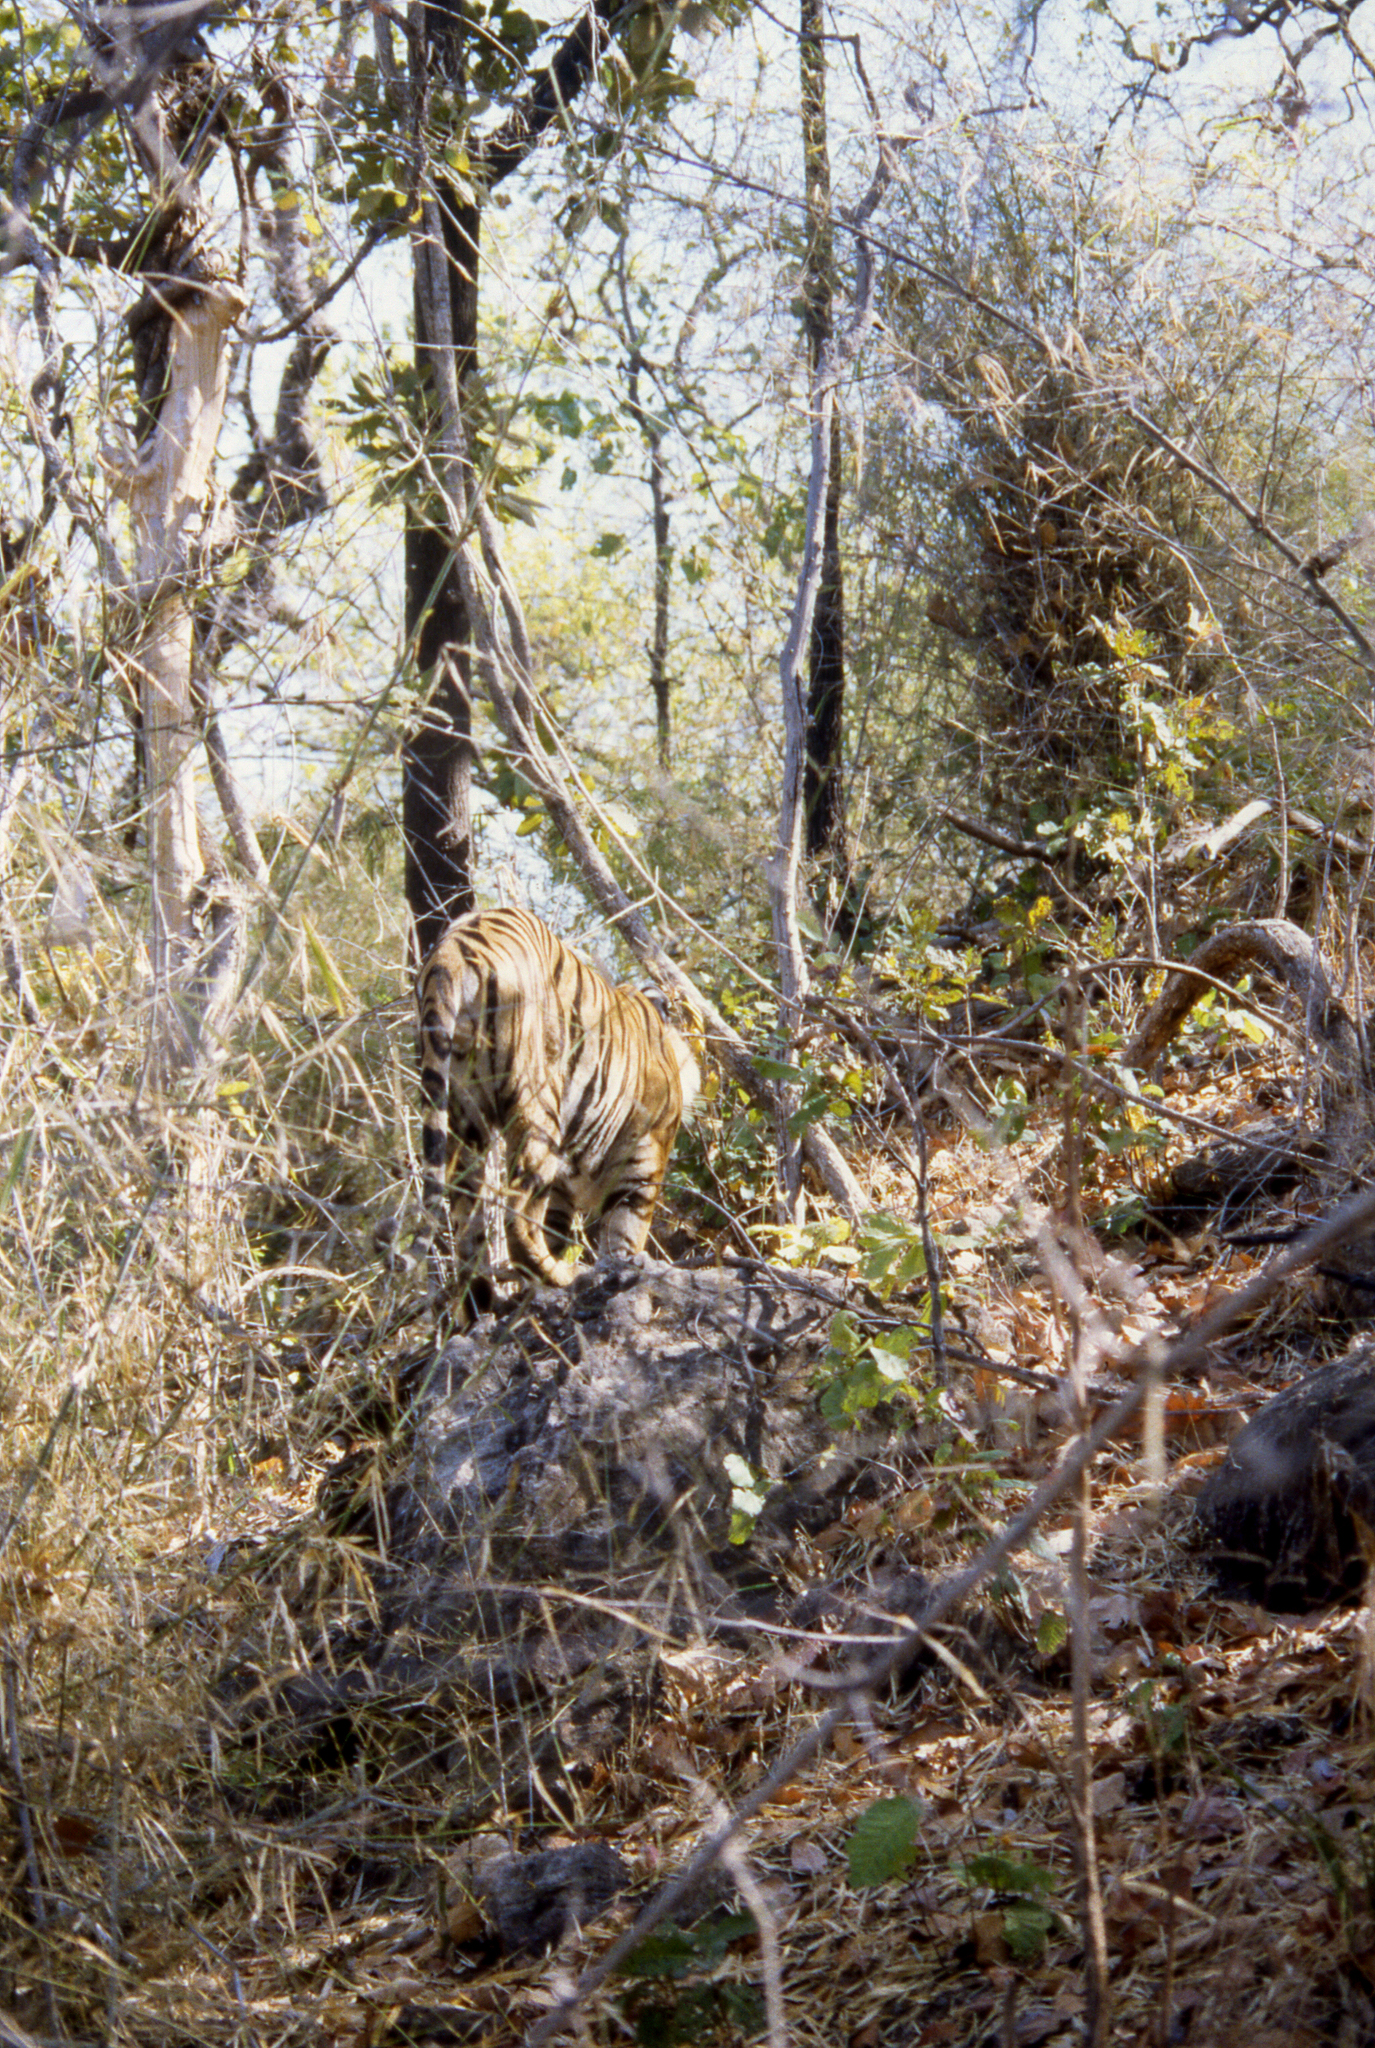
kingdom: Animalia
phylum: Chordata
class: Mammalia
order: Carnivora
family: Felidae
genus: Panthera
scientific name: Panthera tigris
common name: Tiger
